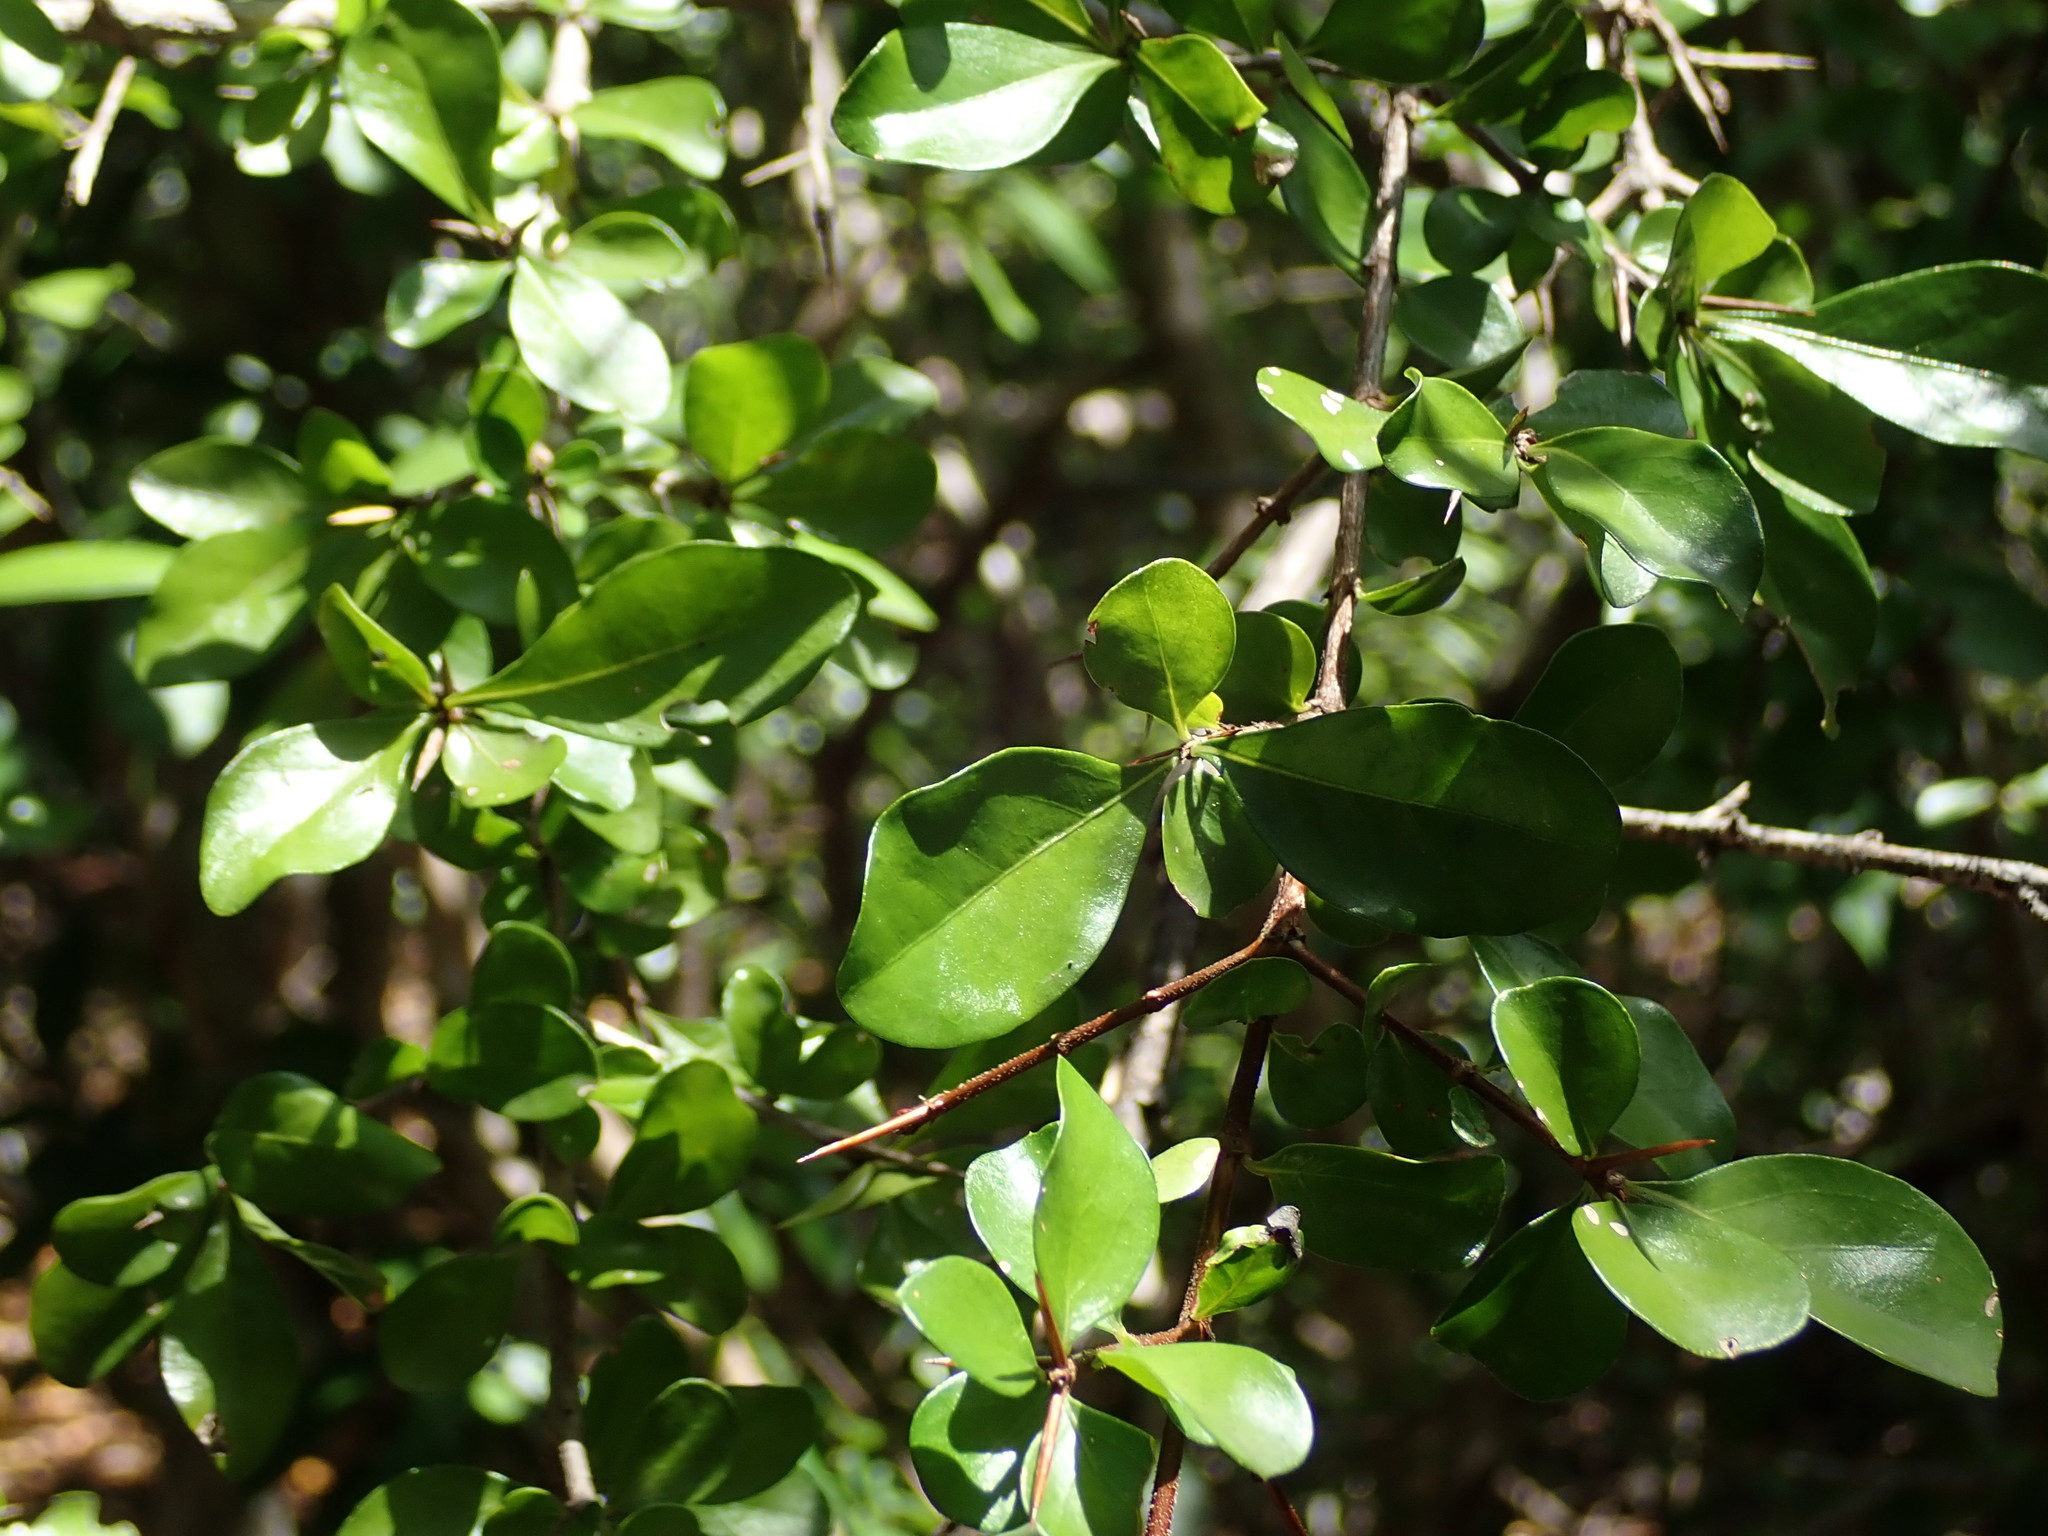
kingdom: Plantae
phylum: Tracheophyta
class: Magnoliopsida
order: Gentianales
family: Rubiaceae
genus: Randia
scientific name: Randia aculeata
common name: Inkberry
